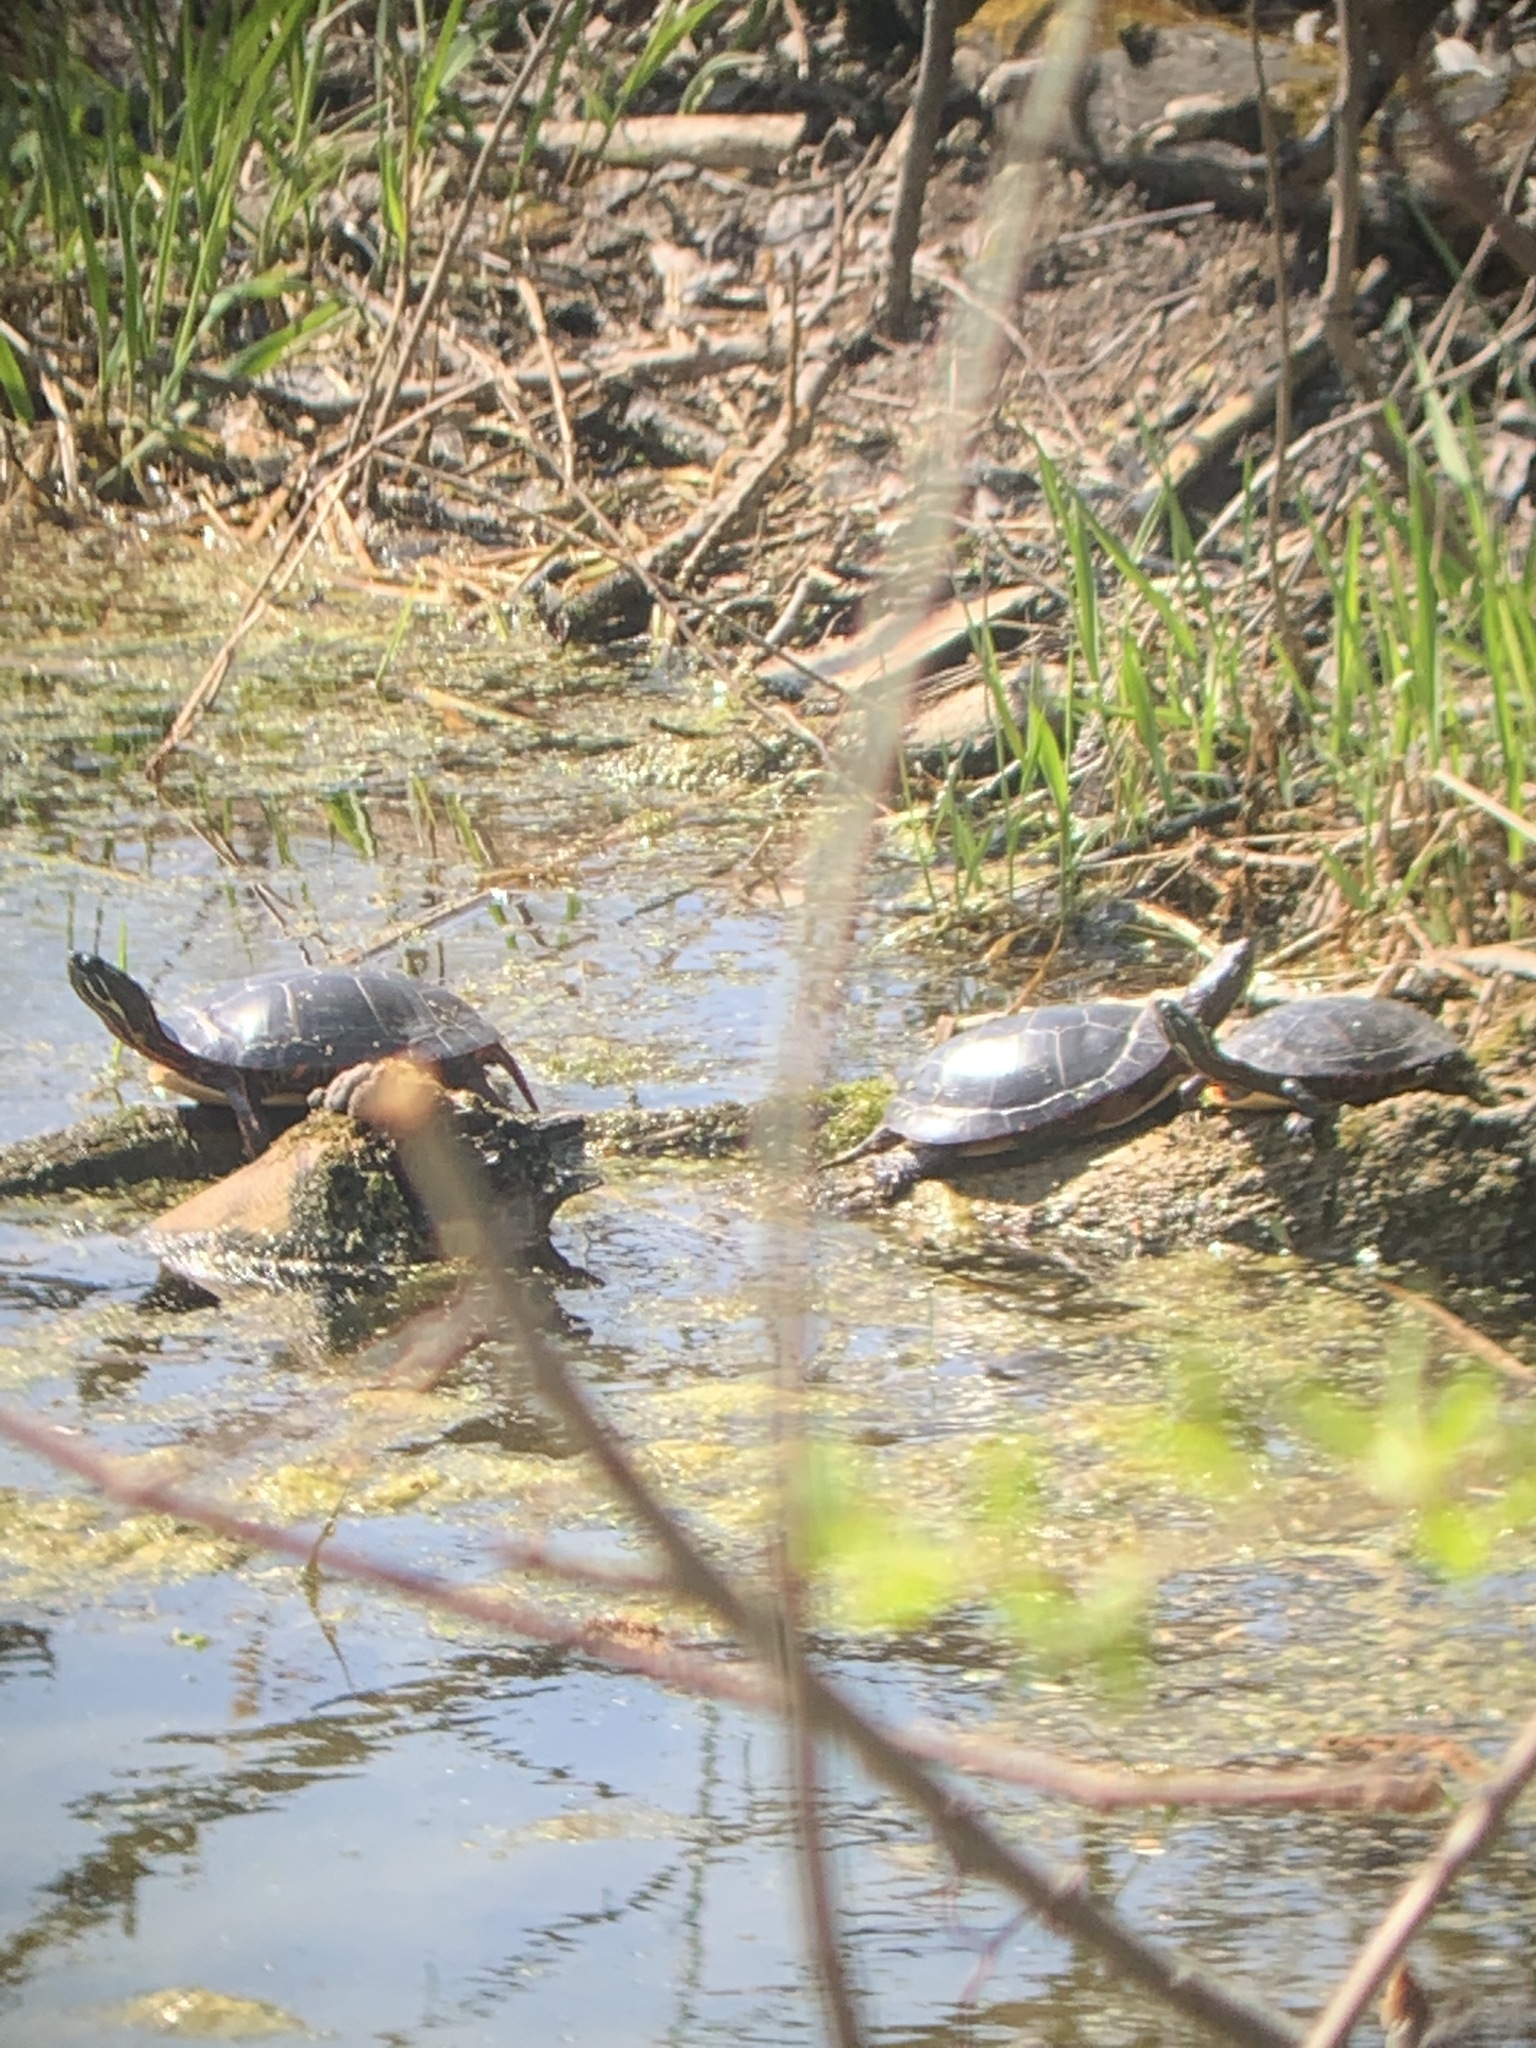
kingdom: Animalia
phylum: Chordata
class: Testudines
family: Emydidae
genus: Chrysemys
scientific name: Chrysemys picta
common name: Painted turtle
